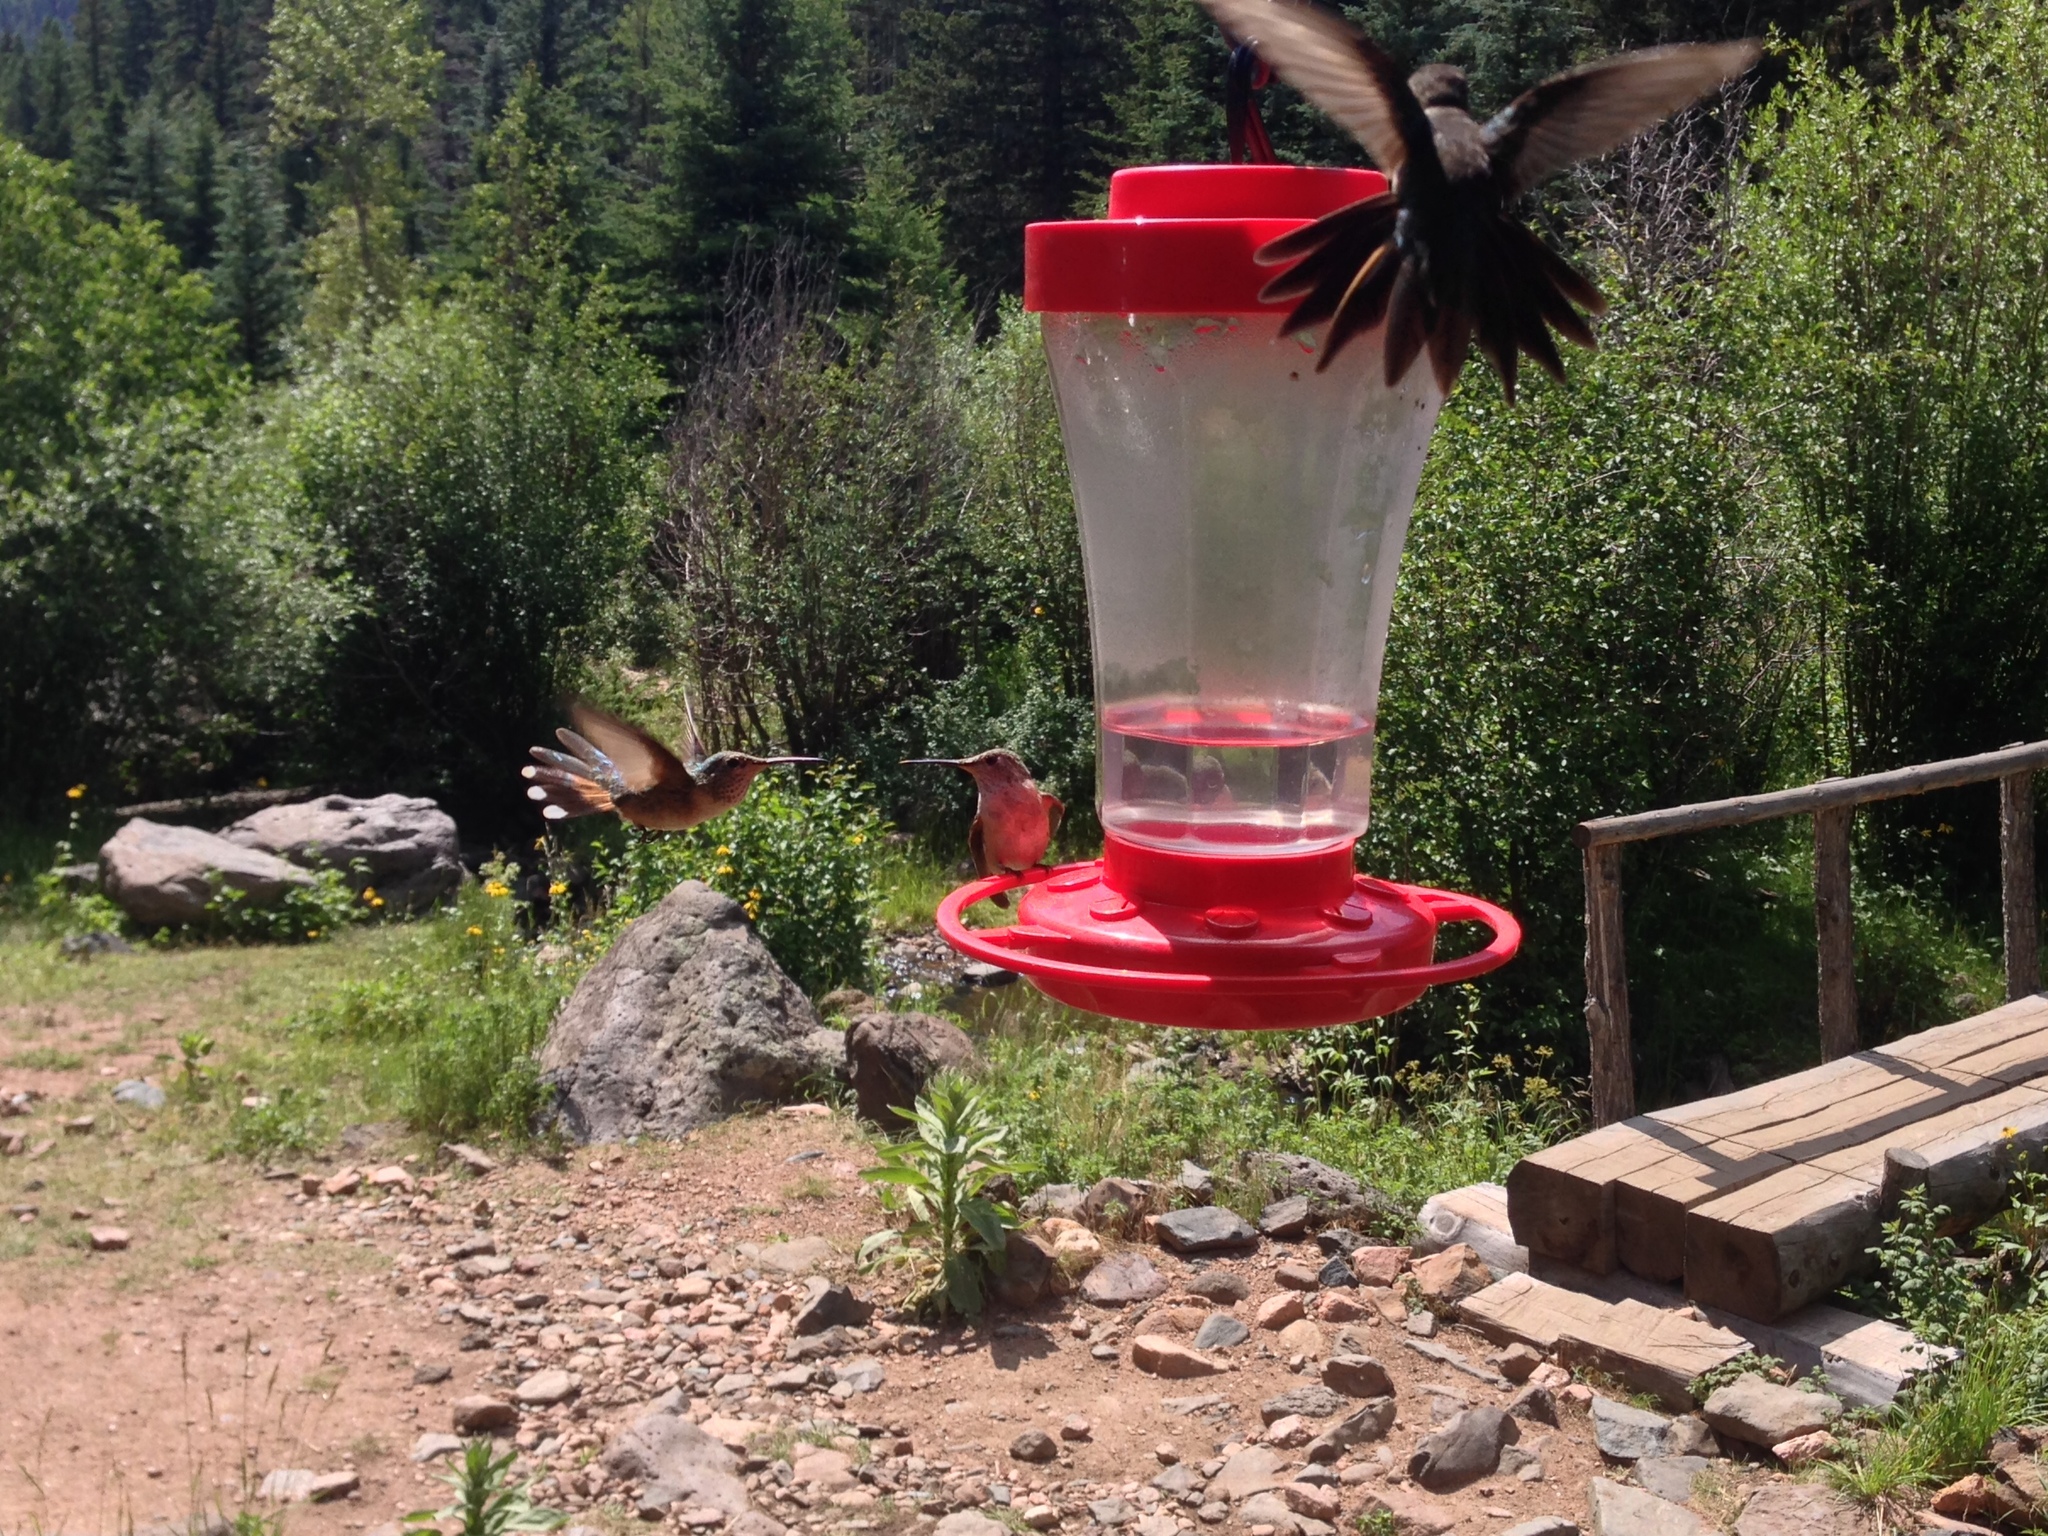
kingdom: Animalia
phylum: Chordata
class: Aves
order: Apodiformes
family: Trochilidae
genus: Selasphorus
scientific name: Selasphorus platycercus
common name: Broad-tailed hummingbird
